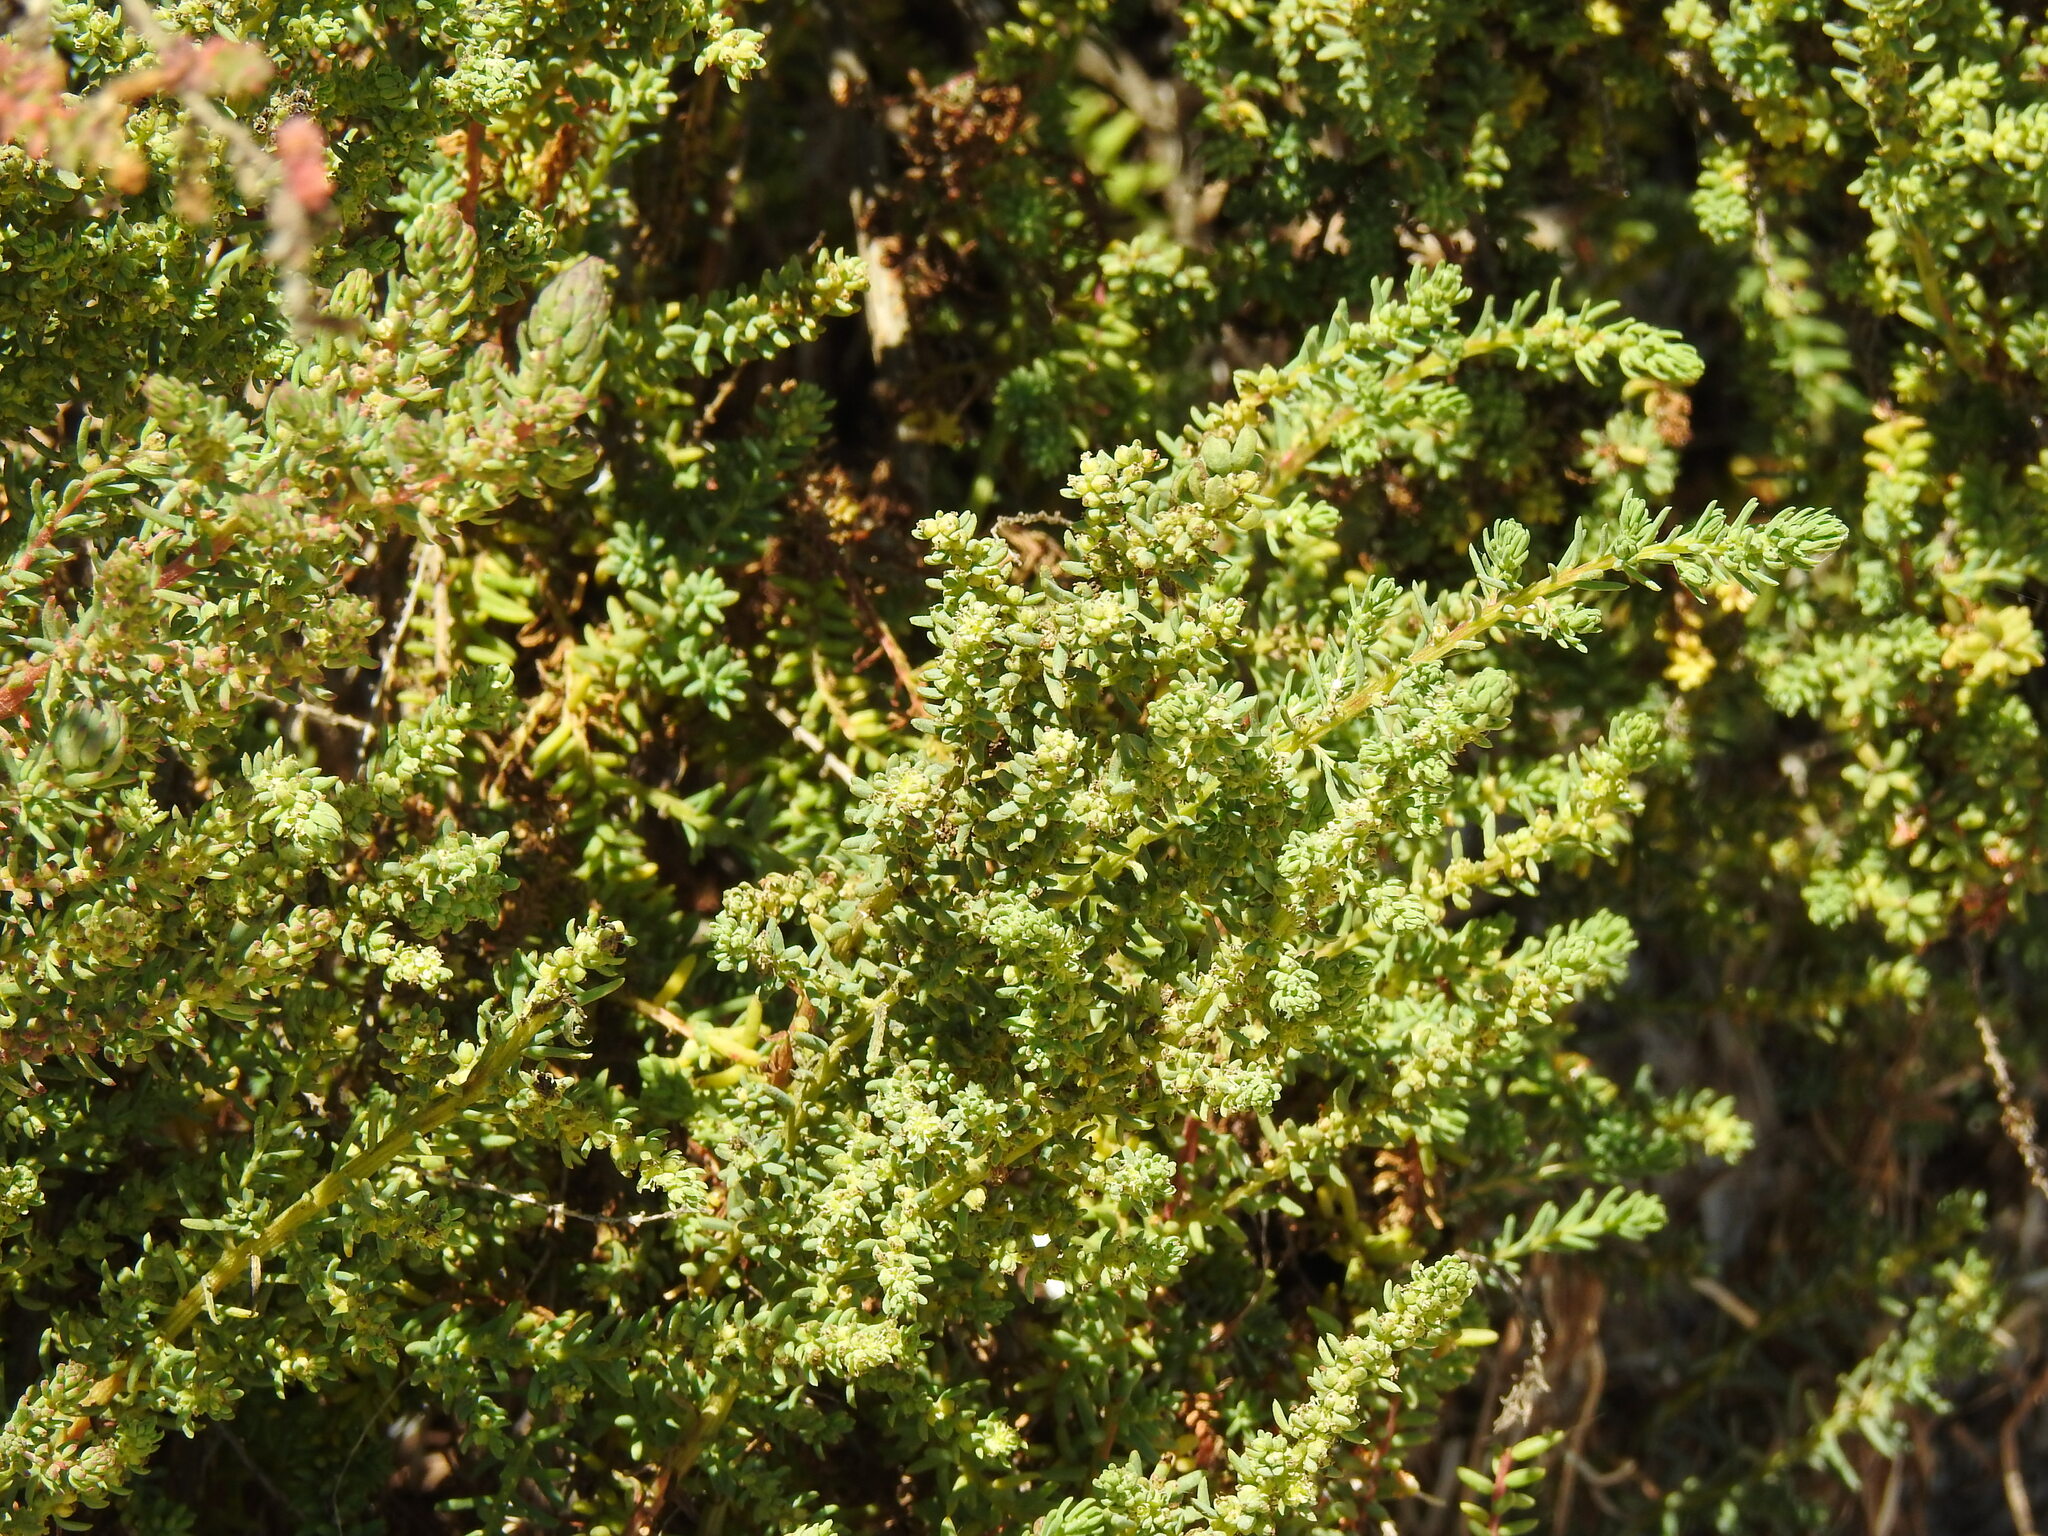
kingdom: Plantae
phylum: Tracheophyta
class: Magnoliopsida
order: Caryophyllales
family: Amaranthaceae
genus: Suaeda
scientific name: Suaeda vera
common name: Shrubby sea-blite
